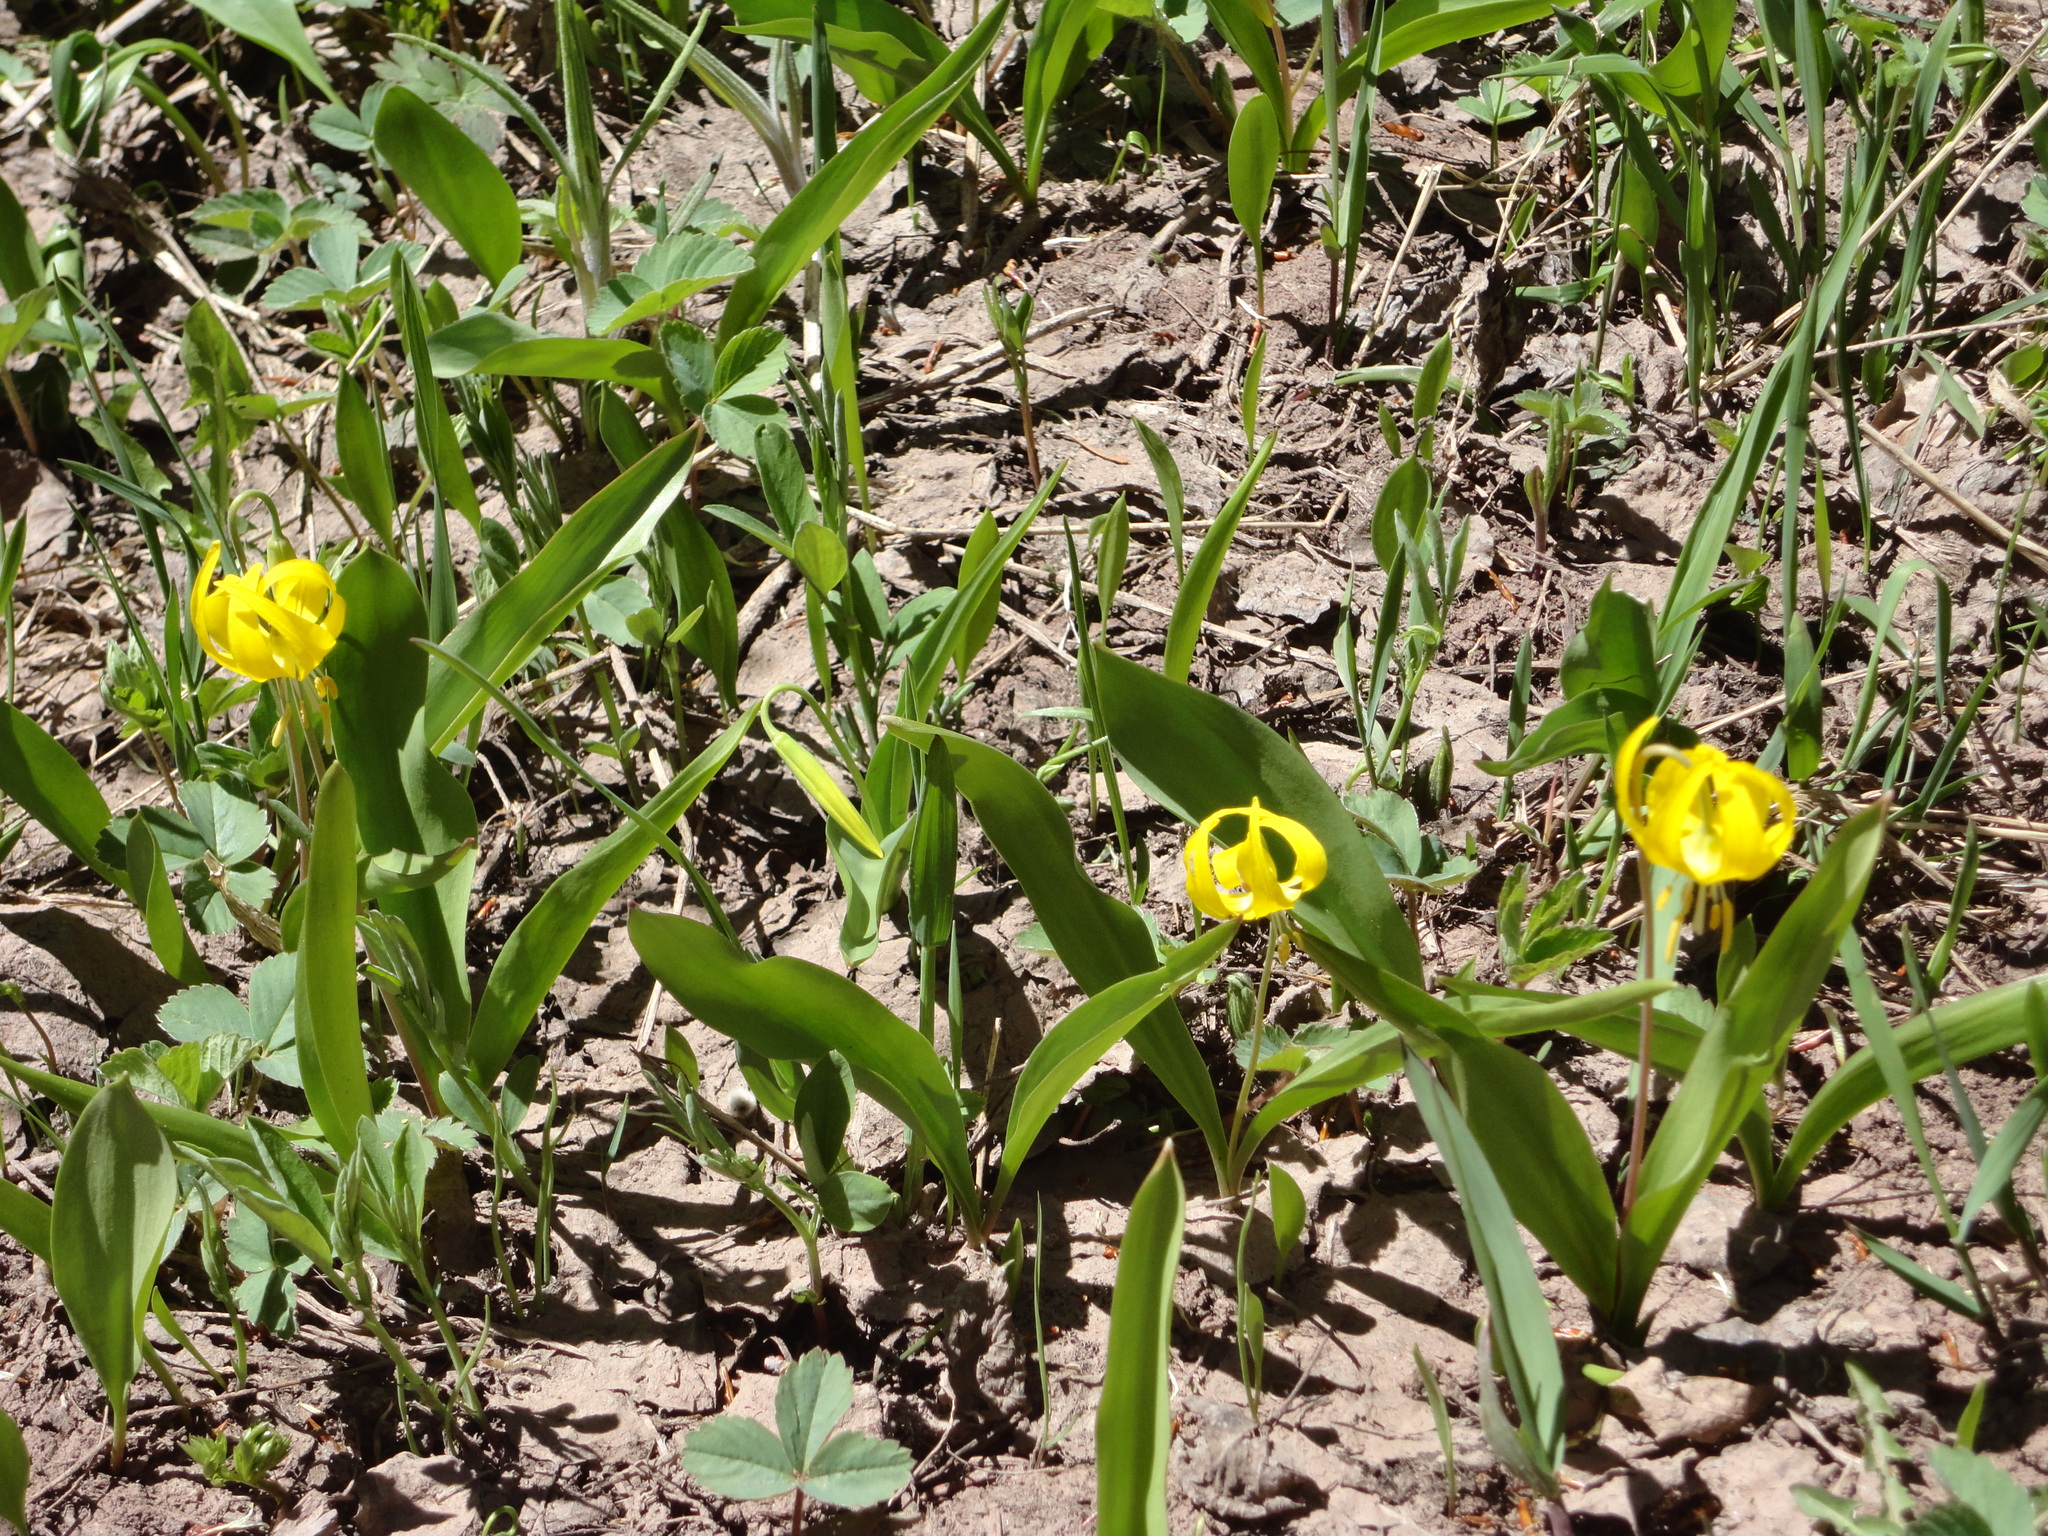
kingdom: Plantae
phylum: Tracheophyta
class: Liliopsida
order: Liliales
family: Liliaceae
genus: Erythronium
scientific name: Erythronium grandiflorum
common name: Avalanche-lily
